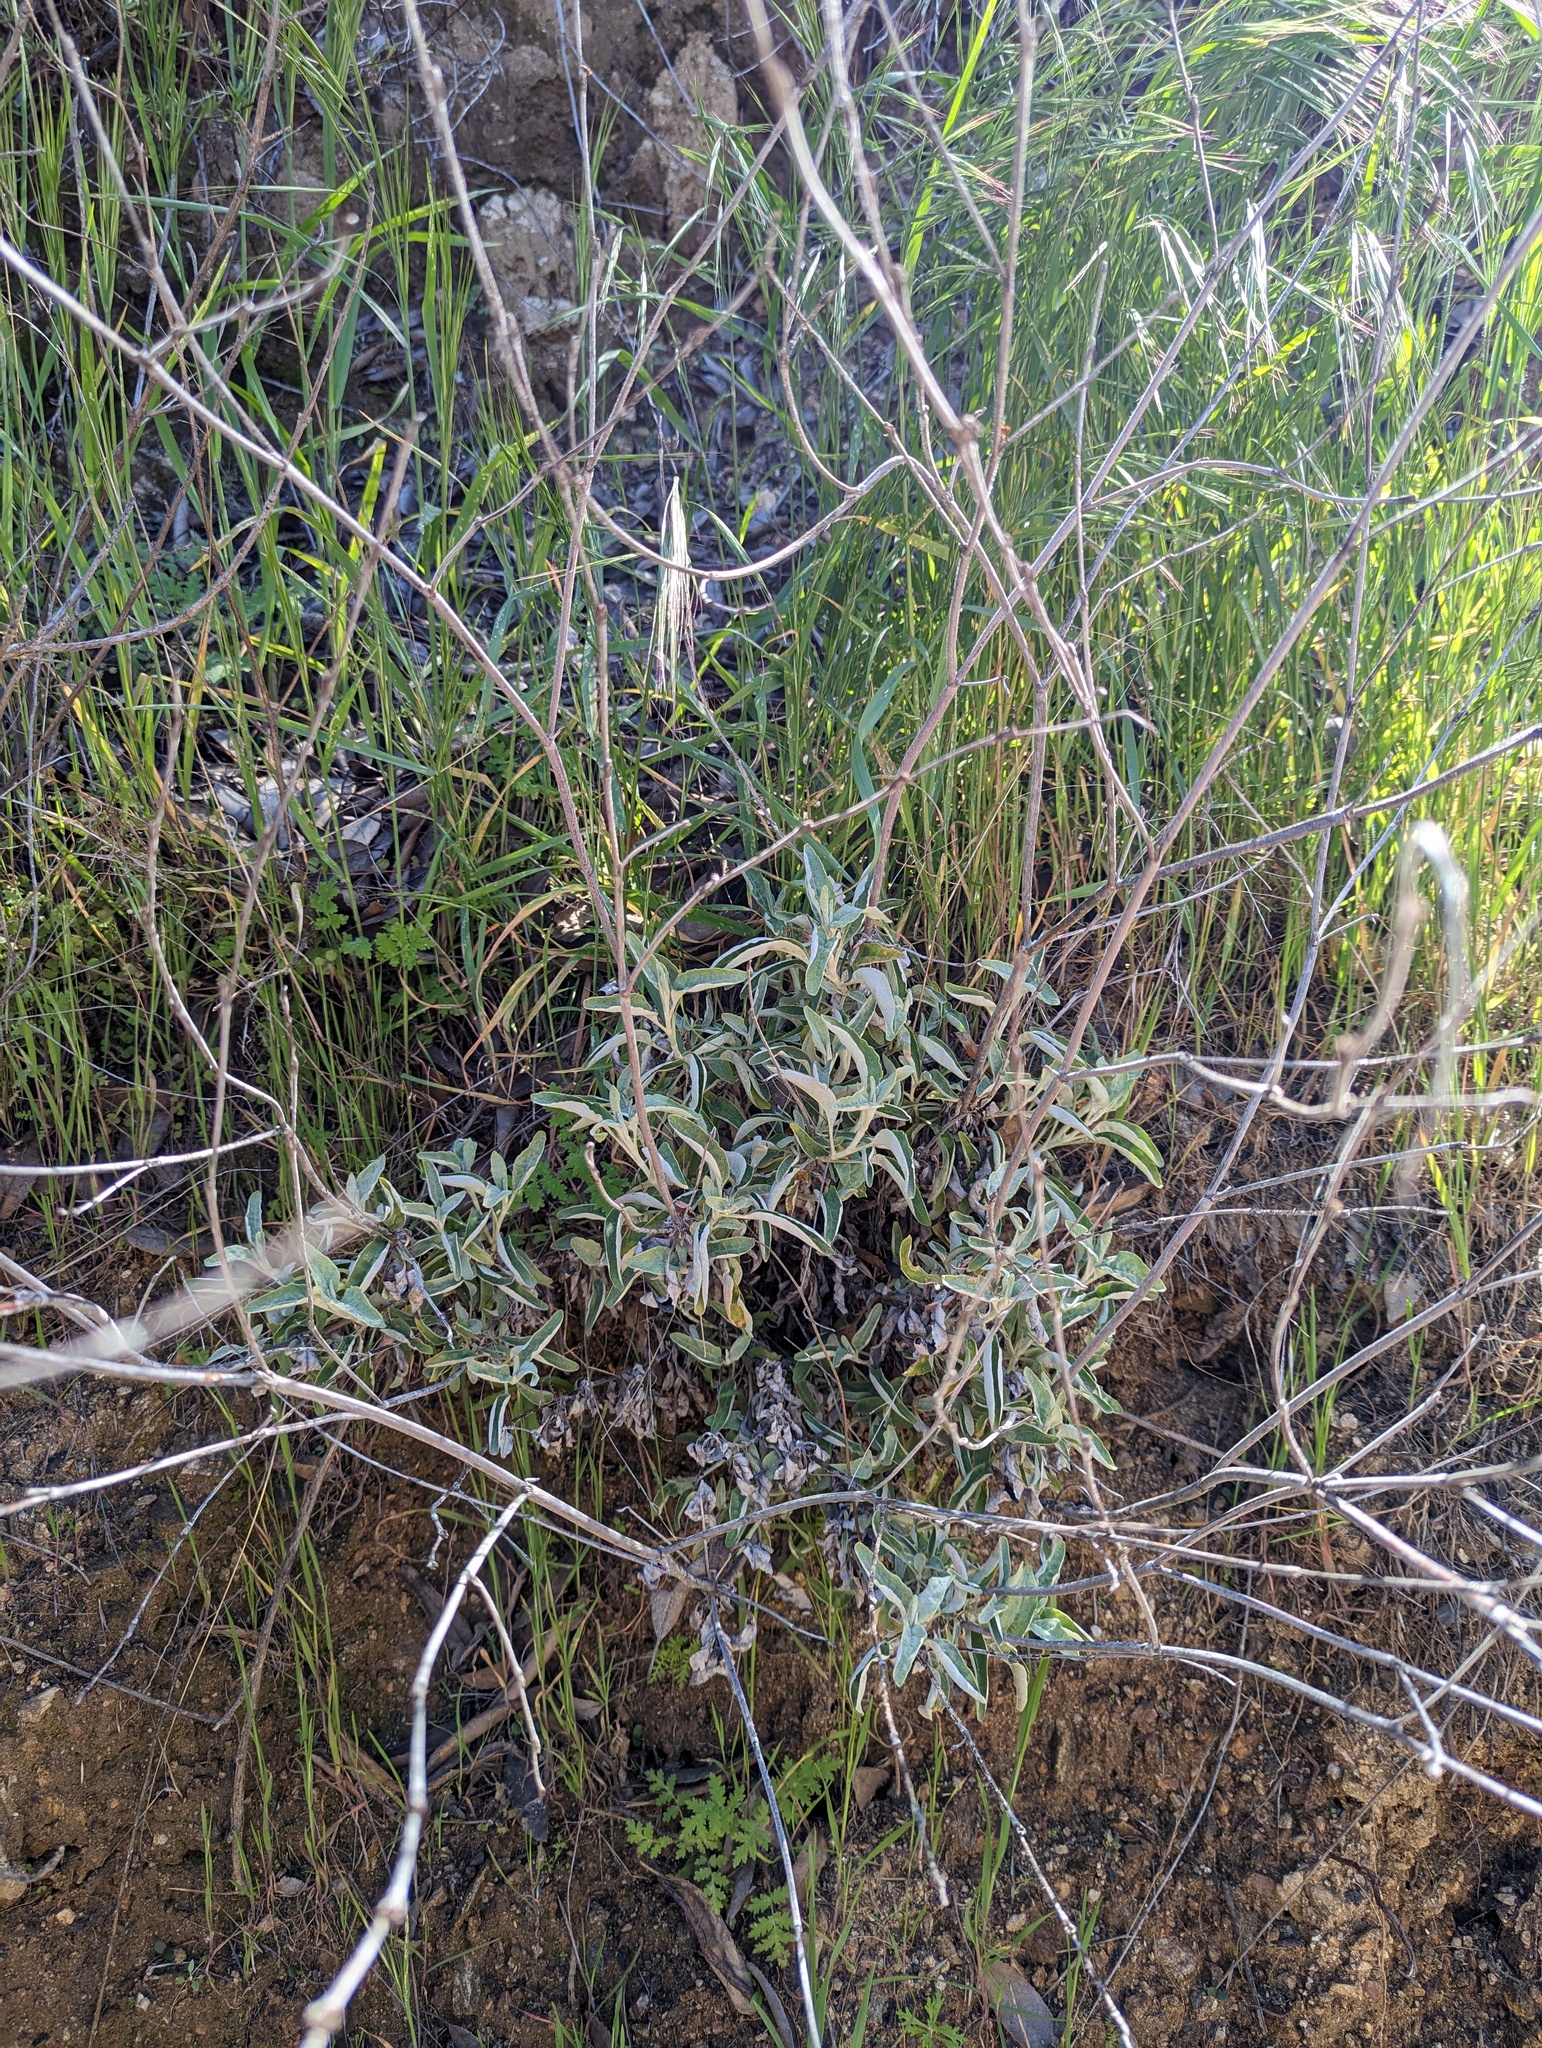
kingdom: Plantae
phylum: Tracheophyta
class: Magnoliopsida
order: Lamiales
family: Lamiaceae
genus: Salvia
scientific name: Salvia apiana
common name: White sage
